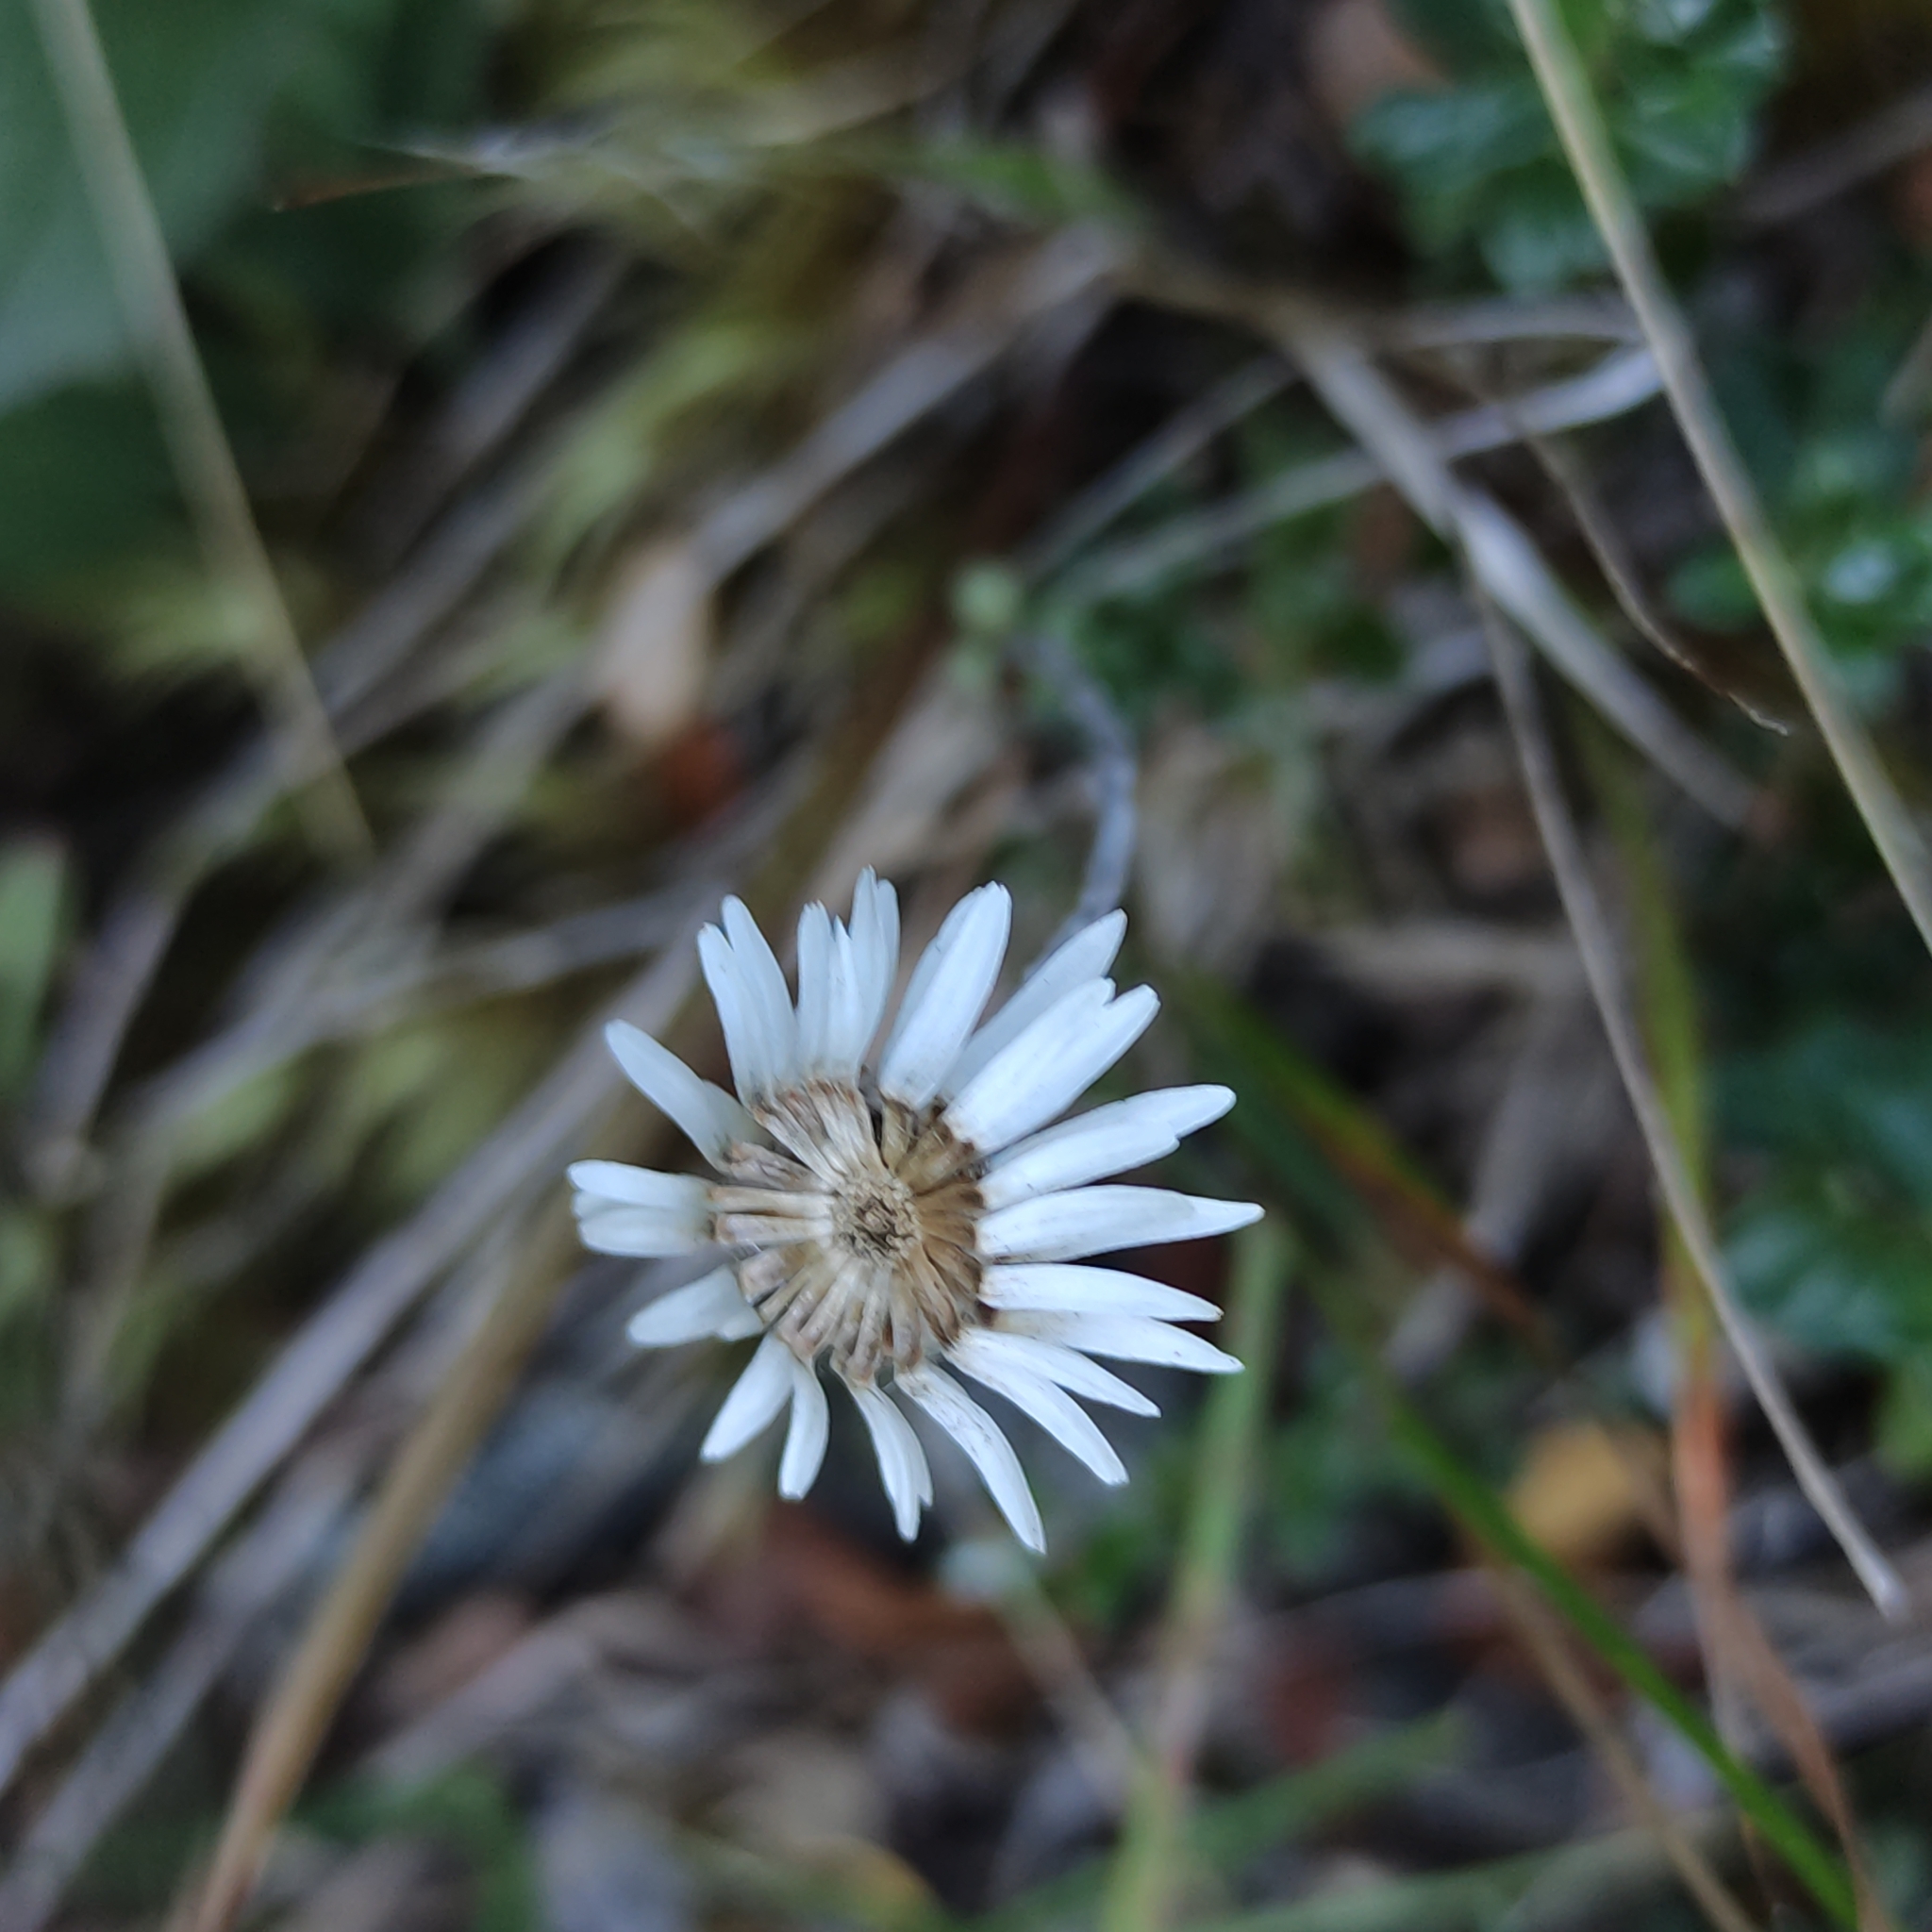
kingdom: Plantae
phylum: Tracheophyta
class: Magnoliopsida
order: Asterales
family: Asteraceae
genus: Anaphalioides
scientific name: Anaphalioides bellidioides
